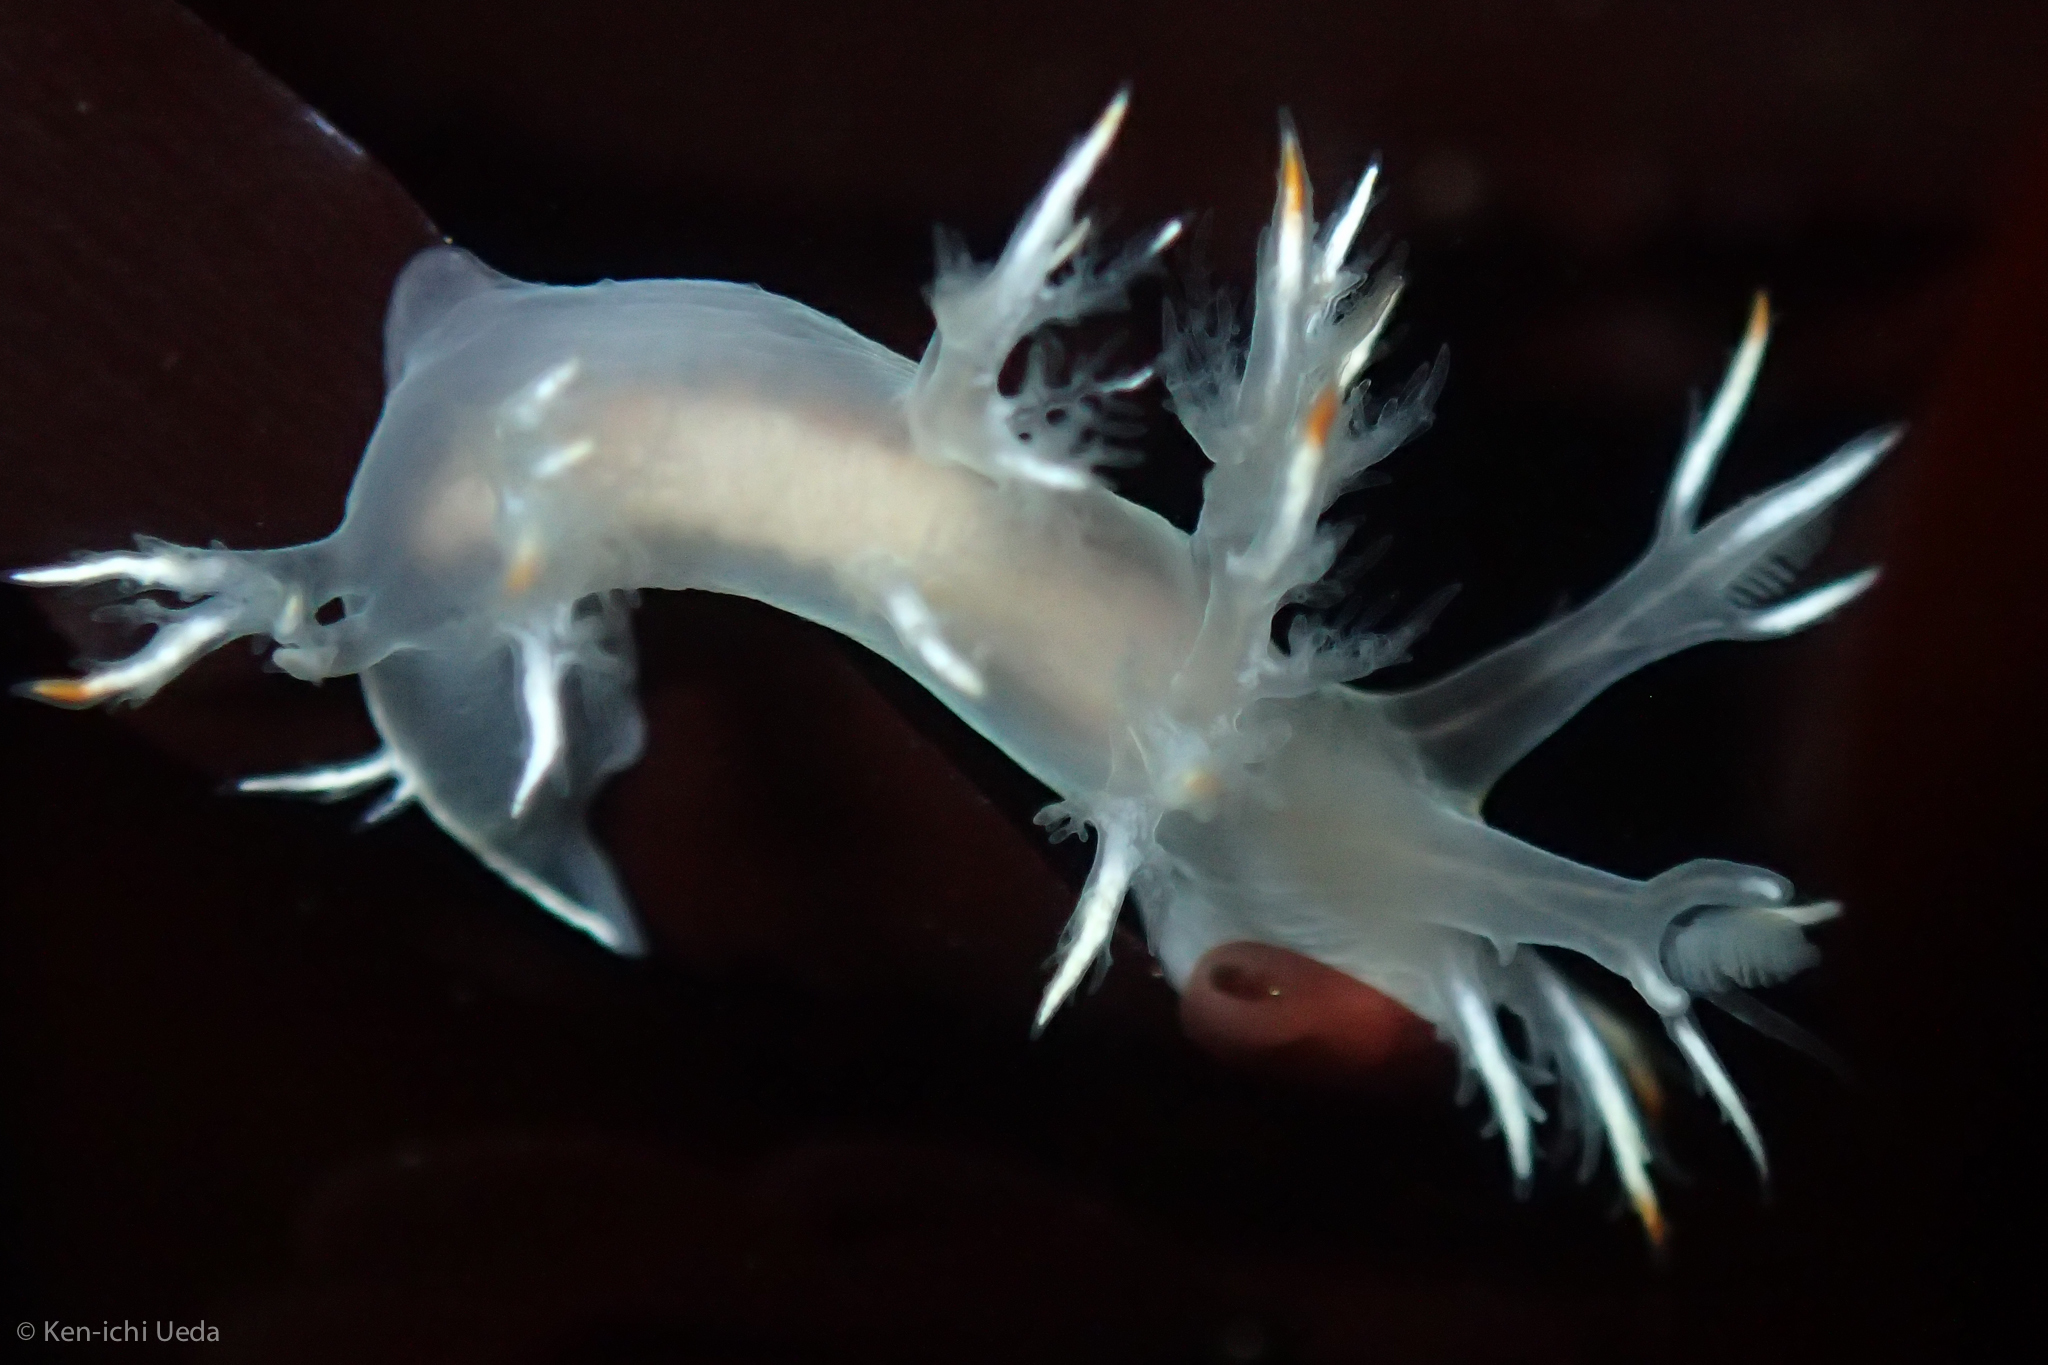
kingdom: Animalia
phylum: Mollusca
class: Gastropoda
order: Nudibranchia
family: Dendronotidae
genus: Dendronotus
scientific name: Dendronotus albus
